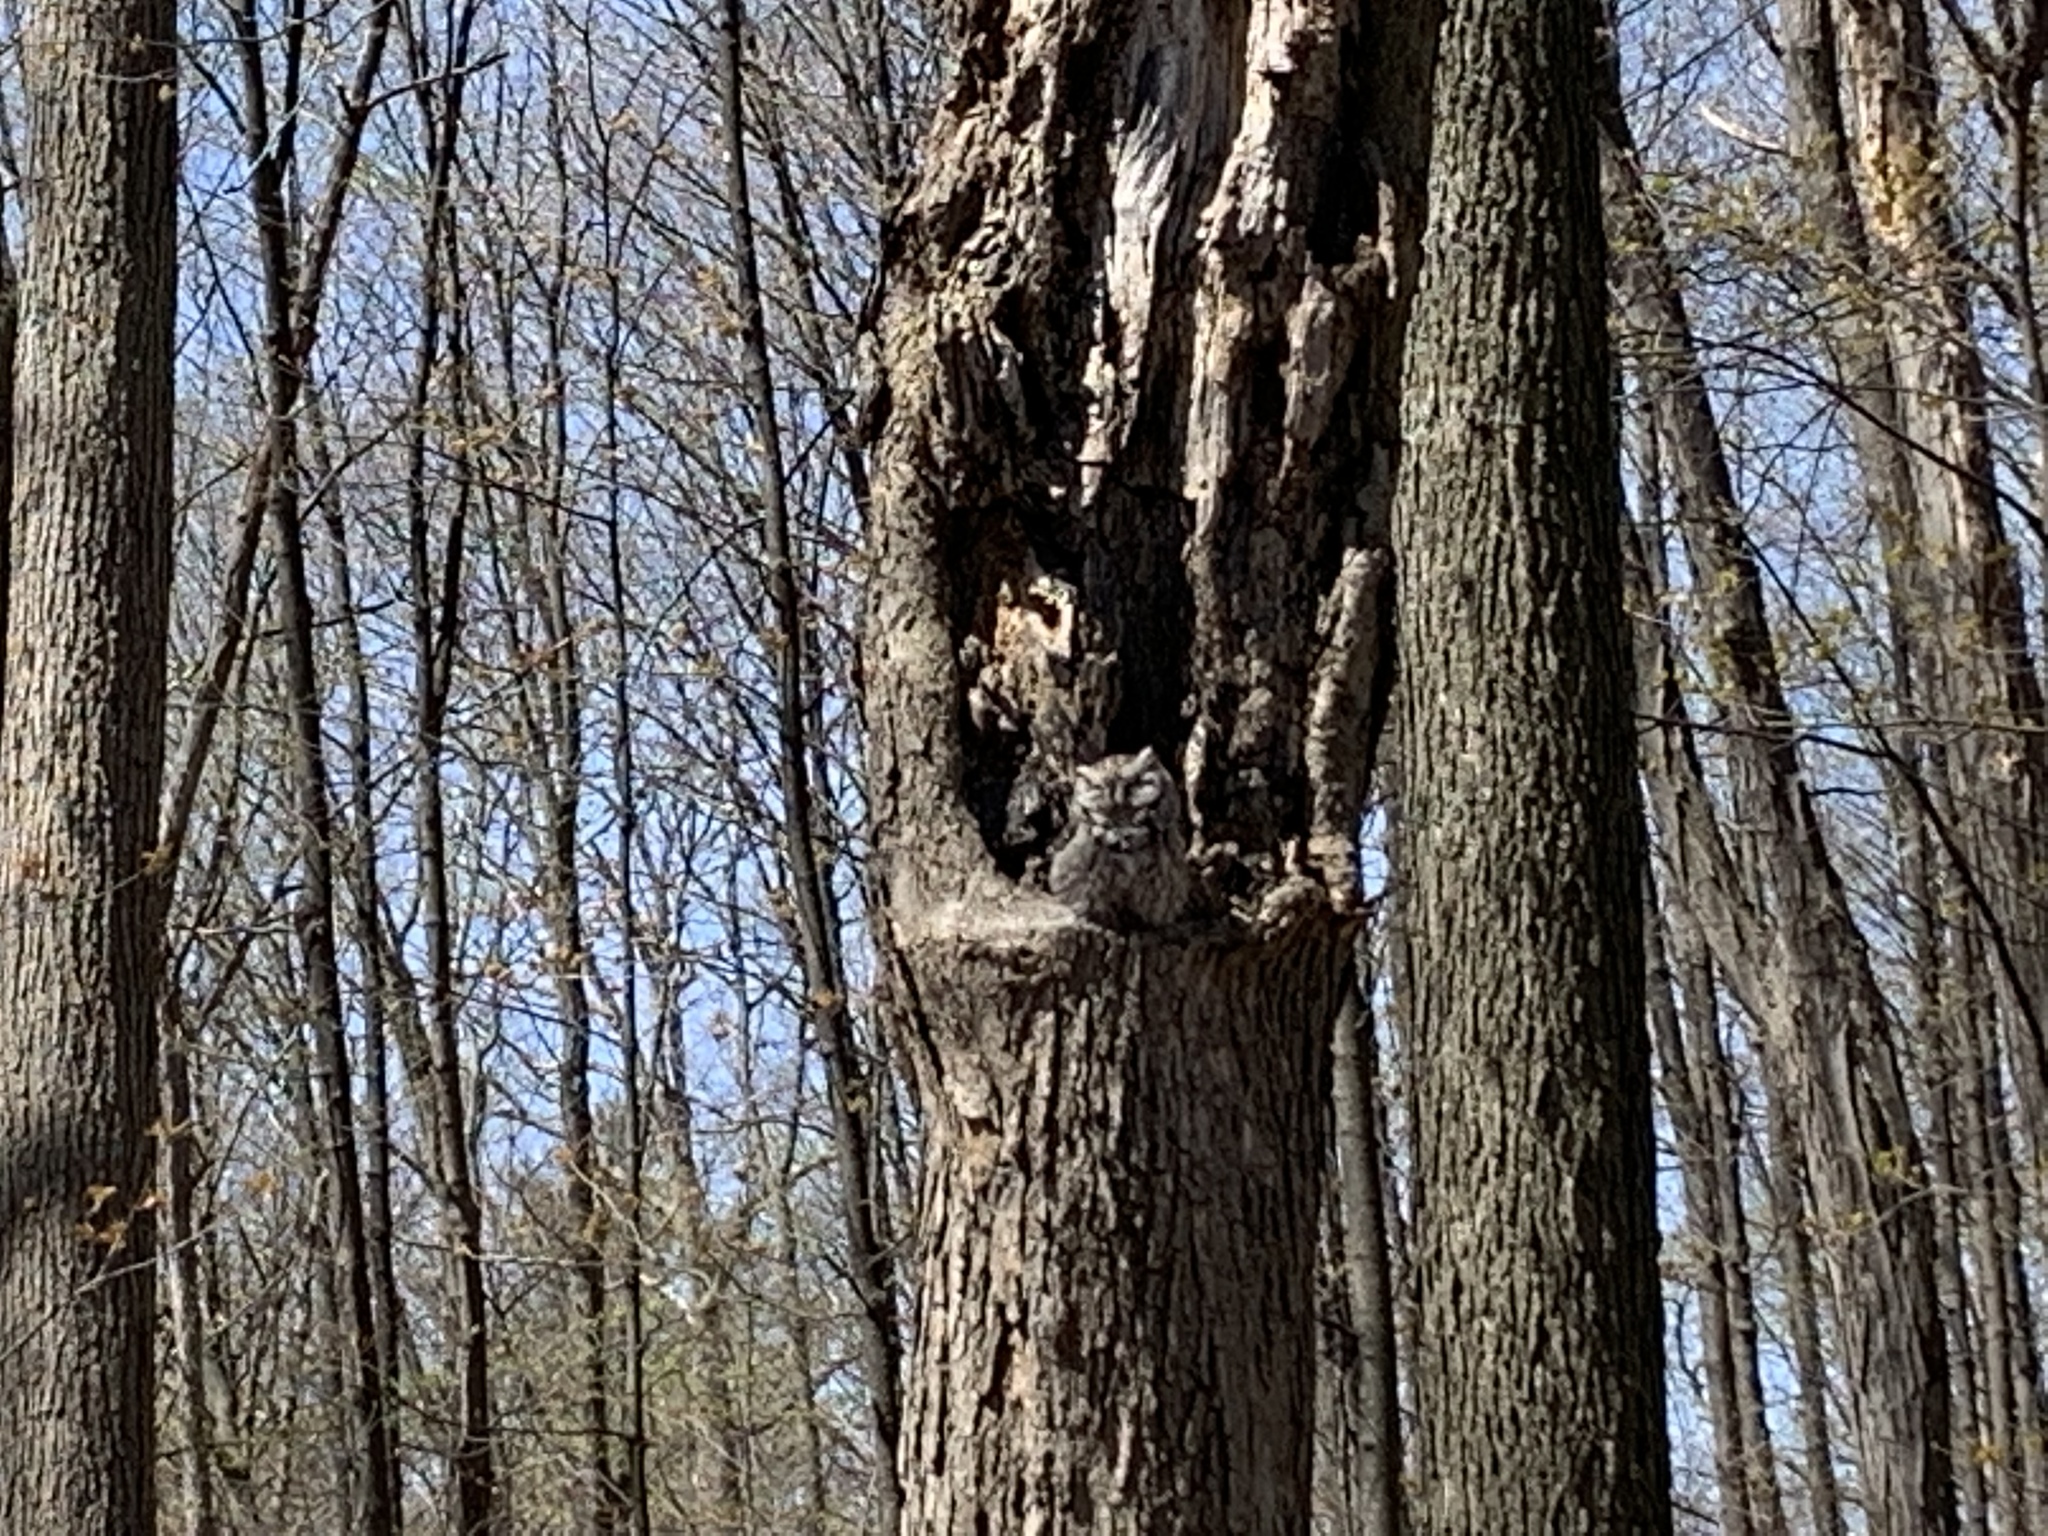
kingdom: Animalia
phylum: Chordata
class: Aves
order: Strigiformes
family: Strigidae
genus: Megascops
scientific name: Megascops asio
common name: Eastern screech-owl
